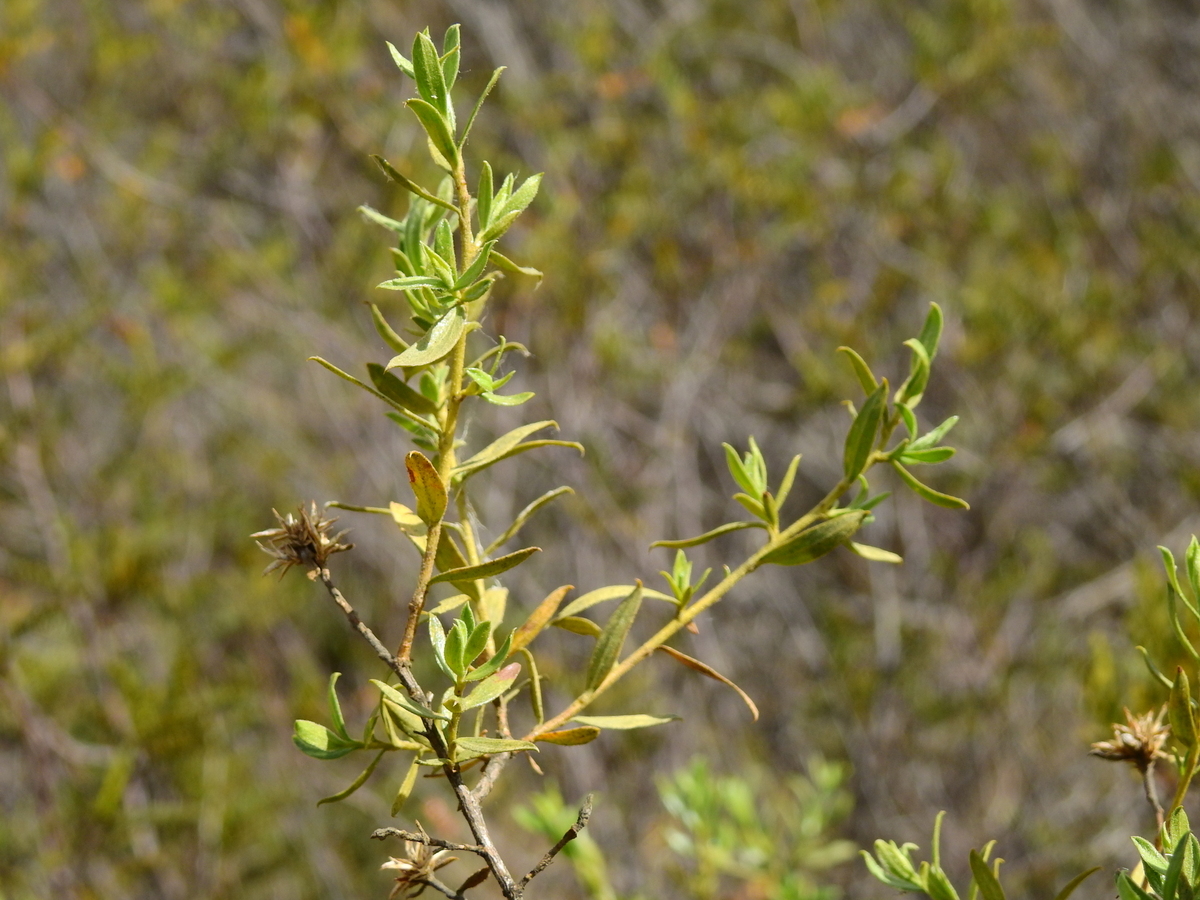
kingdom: Plantae
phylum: Tracheophyta
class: Magnoliopsida
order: Asterales
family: Asteraceae
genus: Gochnatia
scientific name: Gochnatia glutinosa
